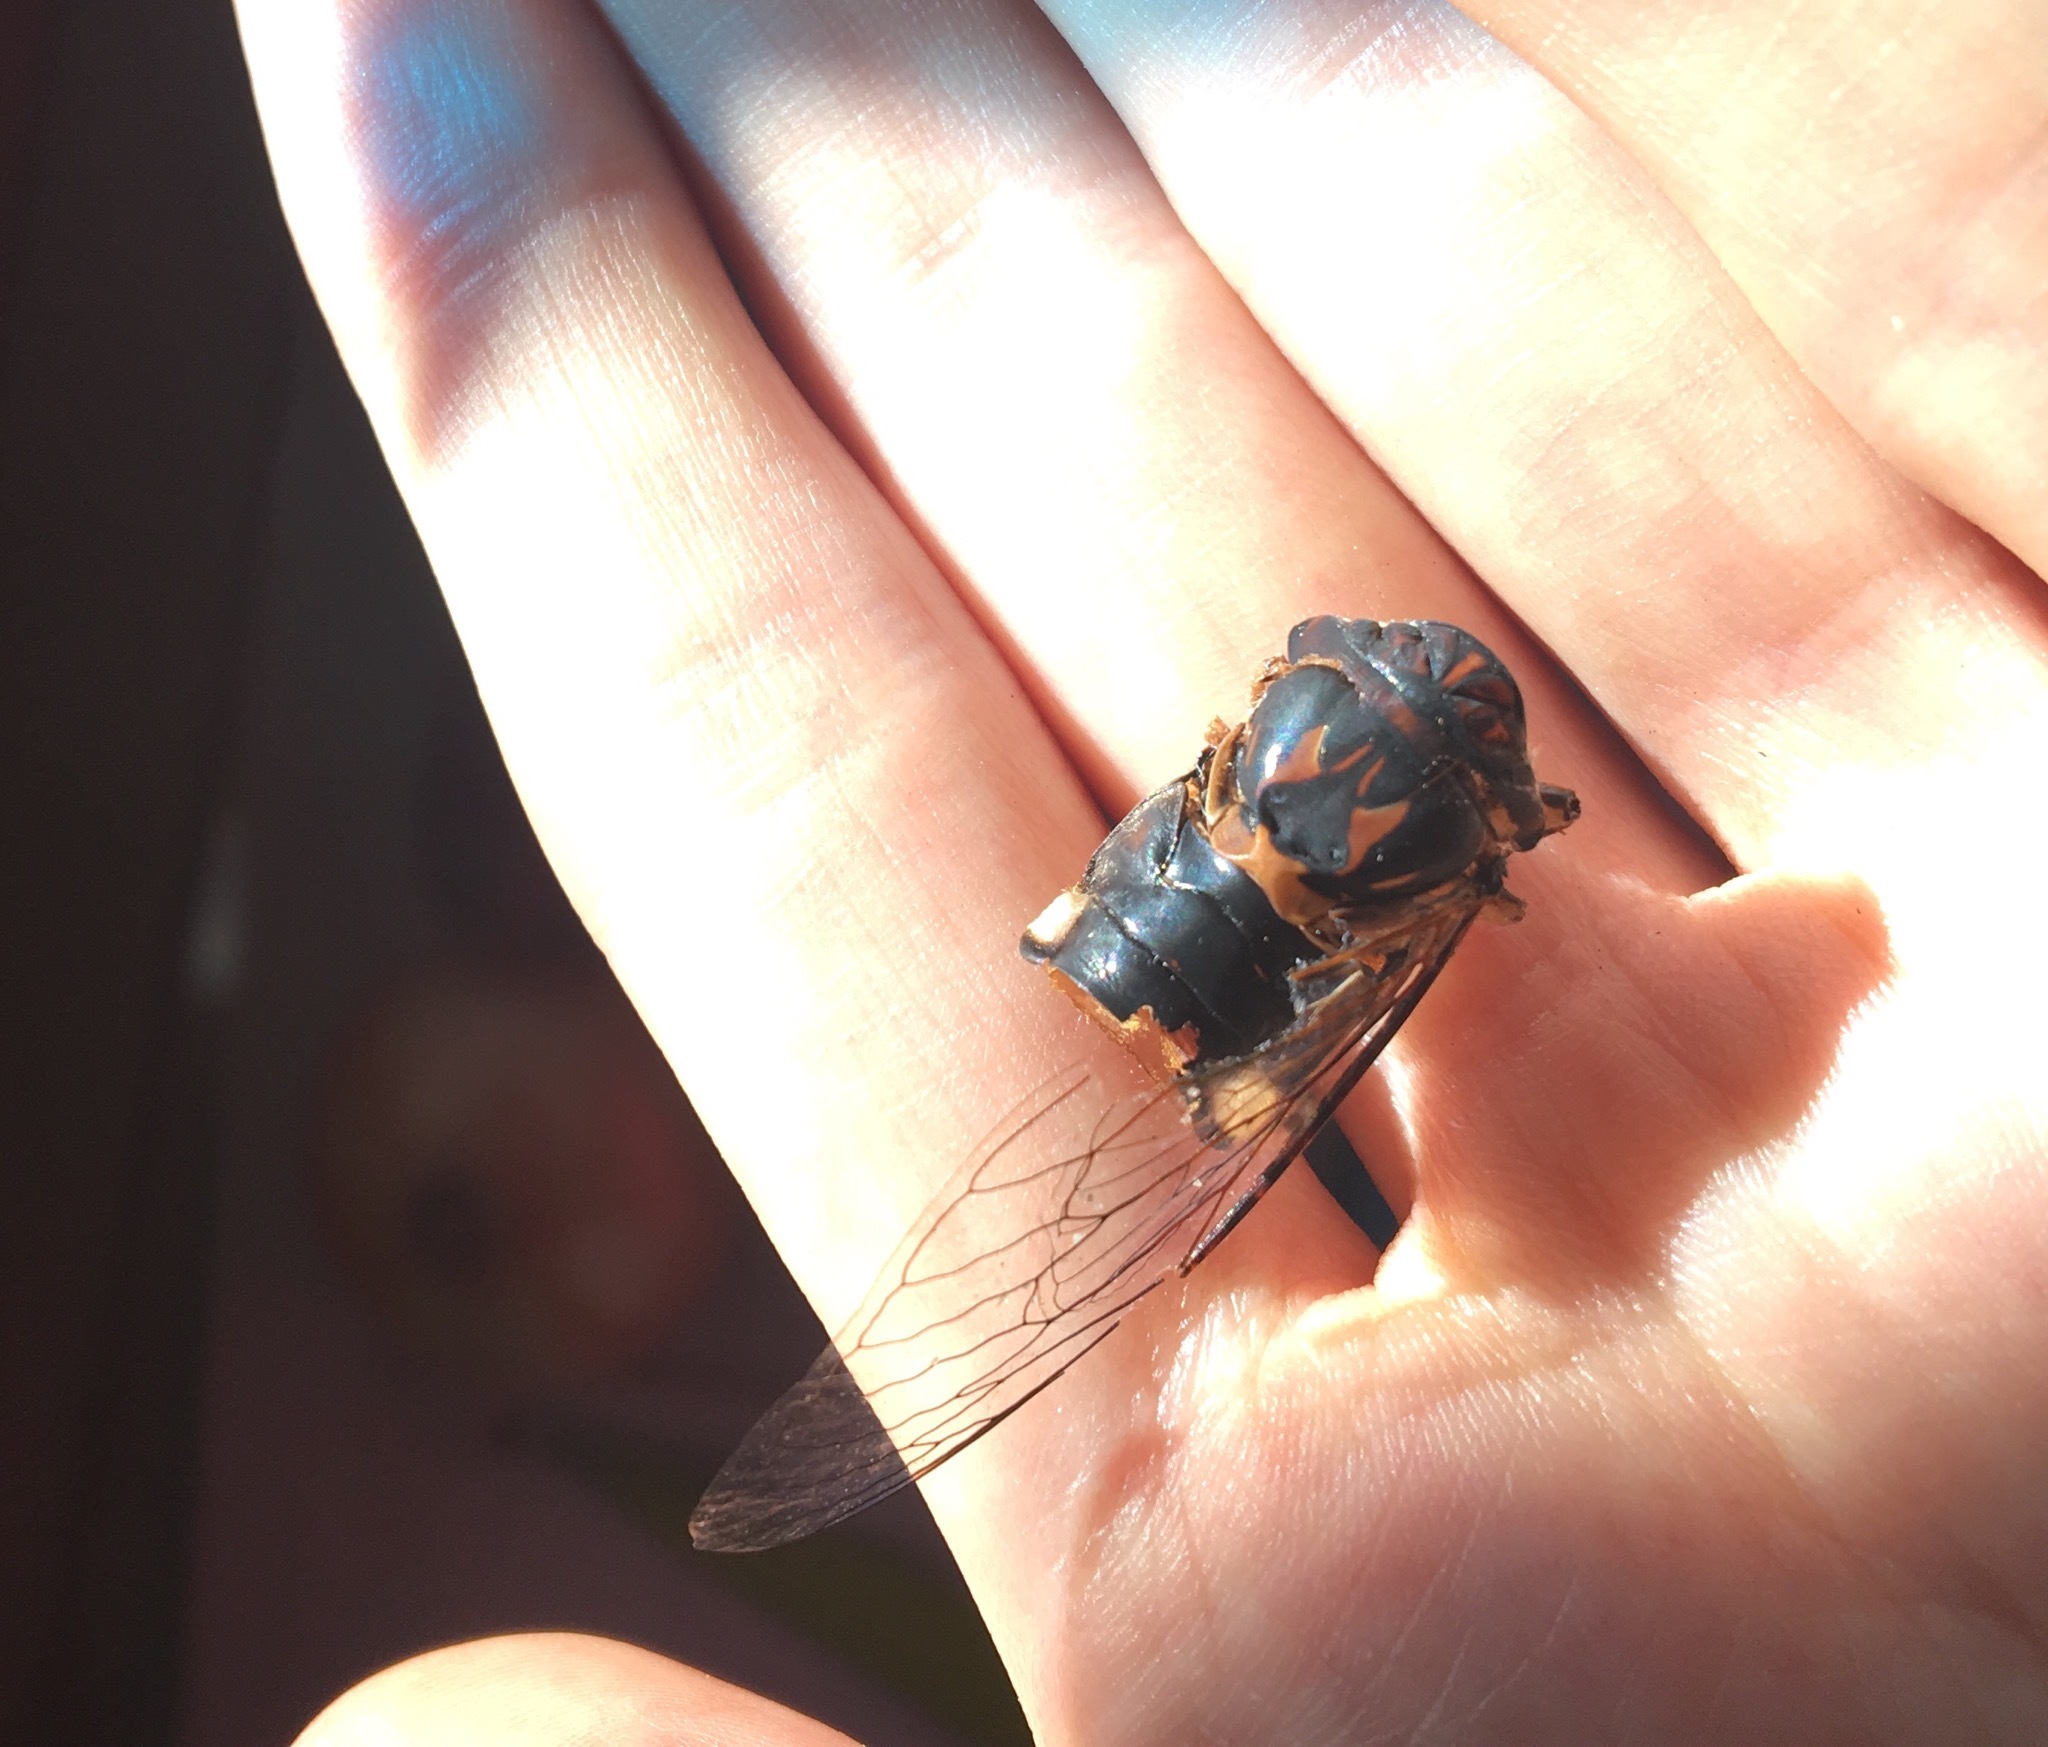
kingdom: Animalia
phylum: Arthropoda
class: Insecta
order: Hemiptera
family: Cicadidae
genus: Psaltoda
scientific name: Psaltoda harrisii
